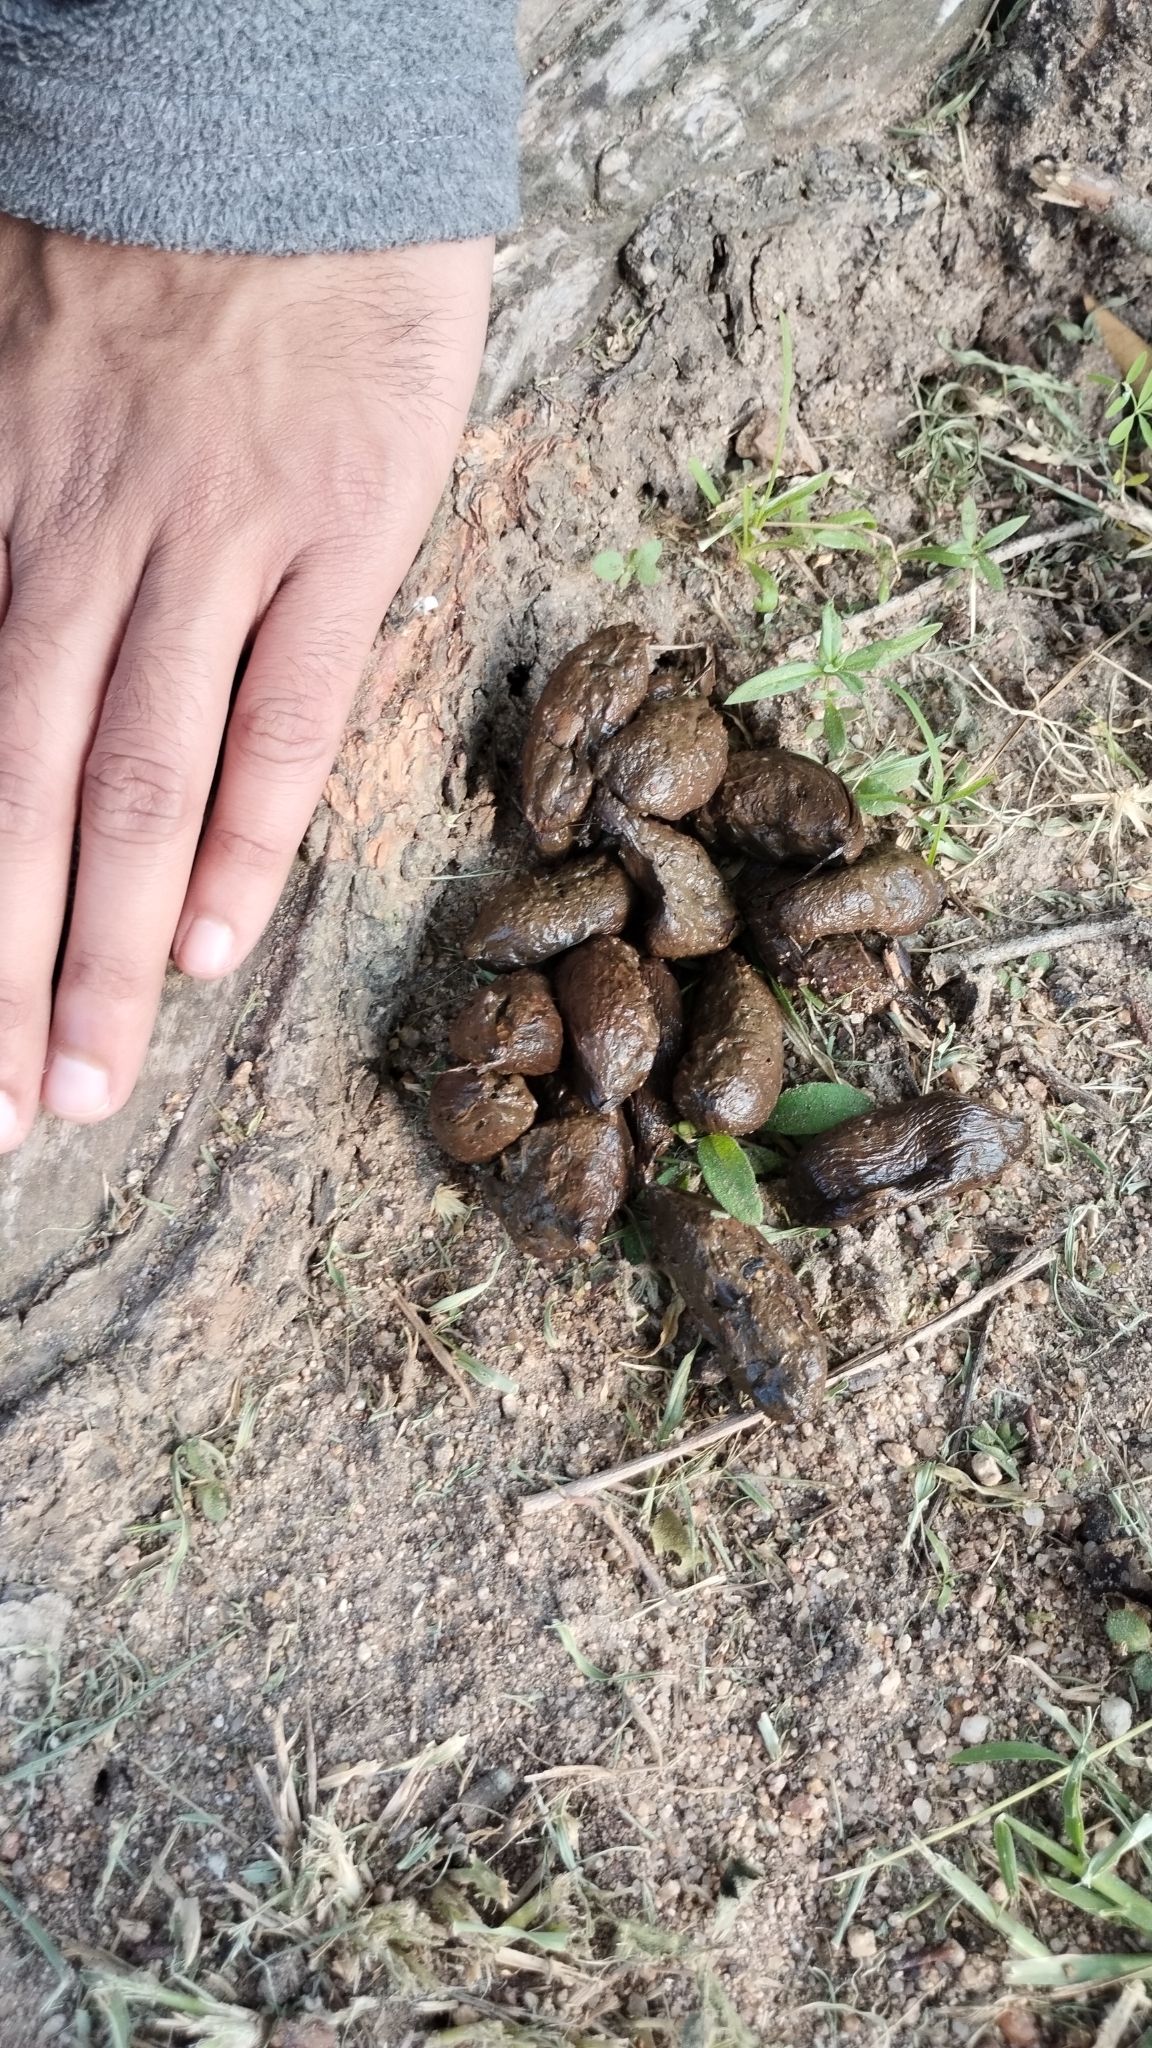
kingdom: Animalia
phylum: Chordata
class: Mammalia
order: Rodentia
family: Hystricidae
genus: Hystrix
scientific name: Hystrix africaeaustralis
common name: Cape porcupine
